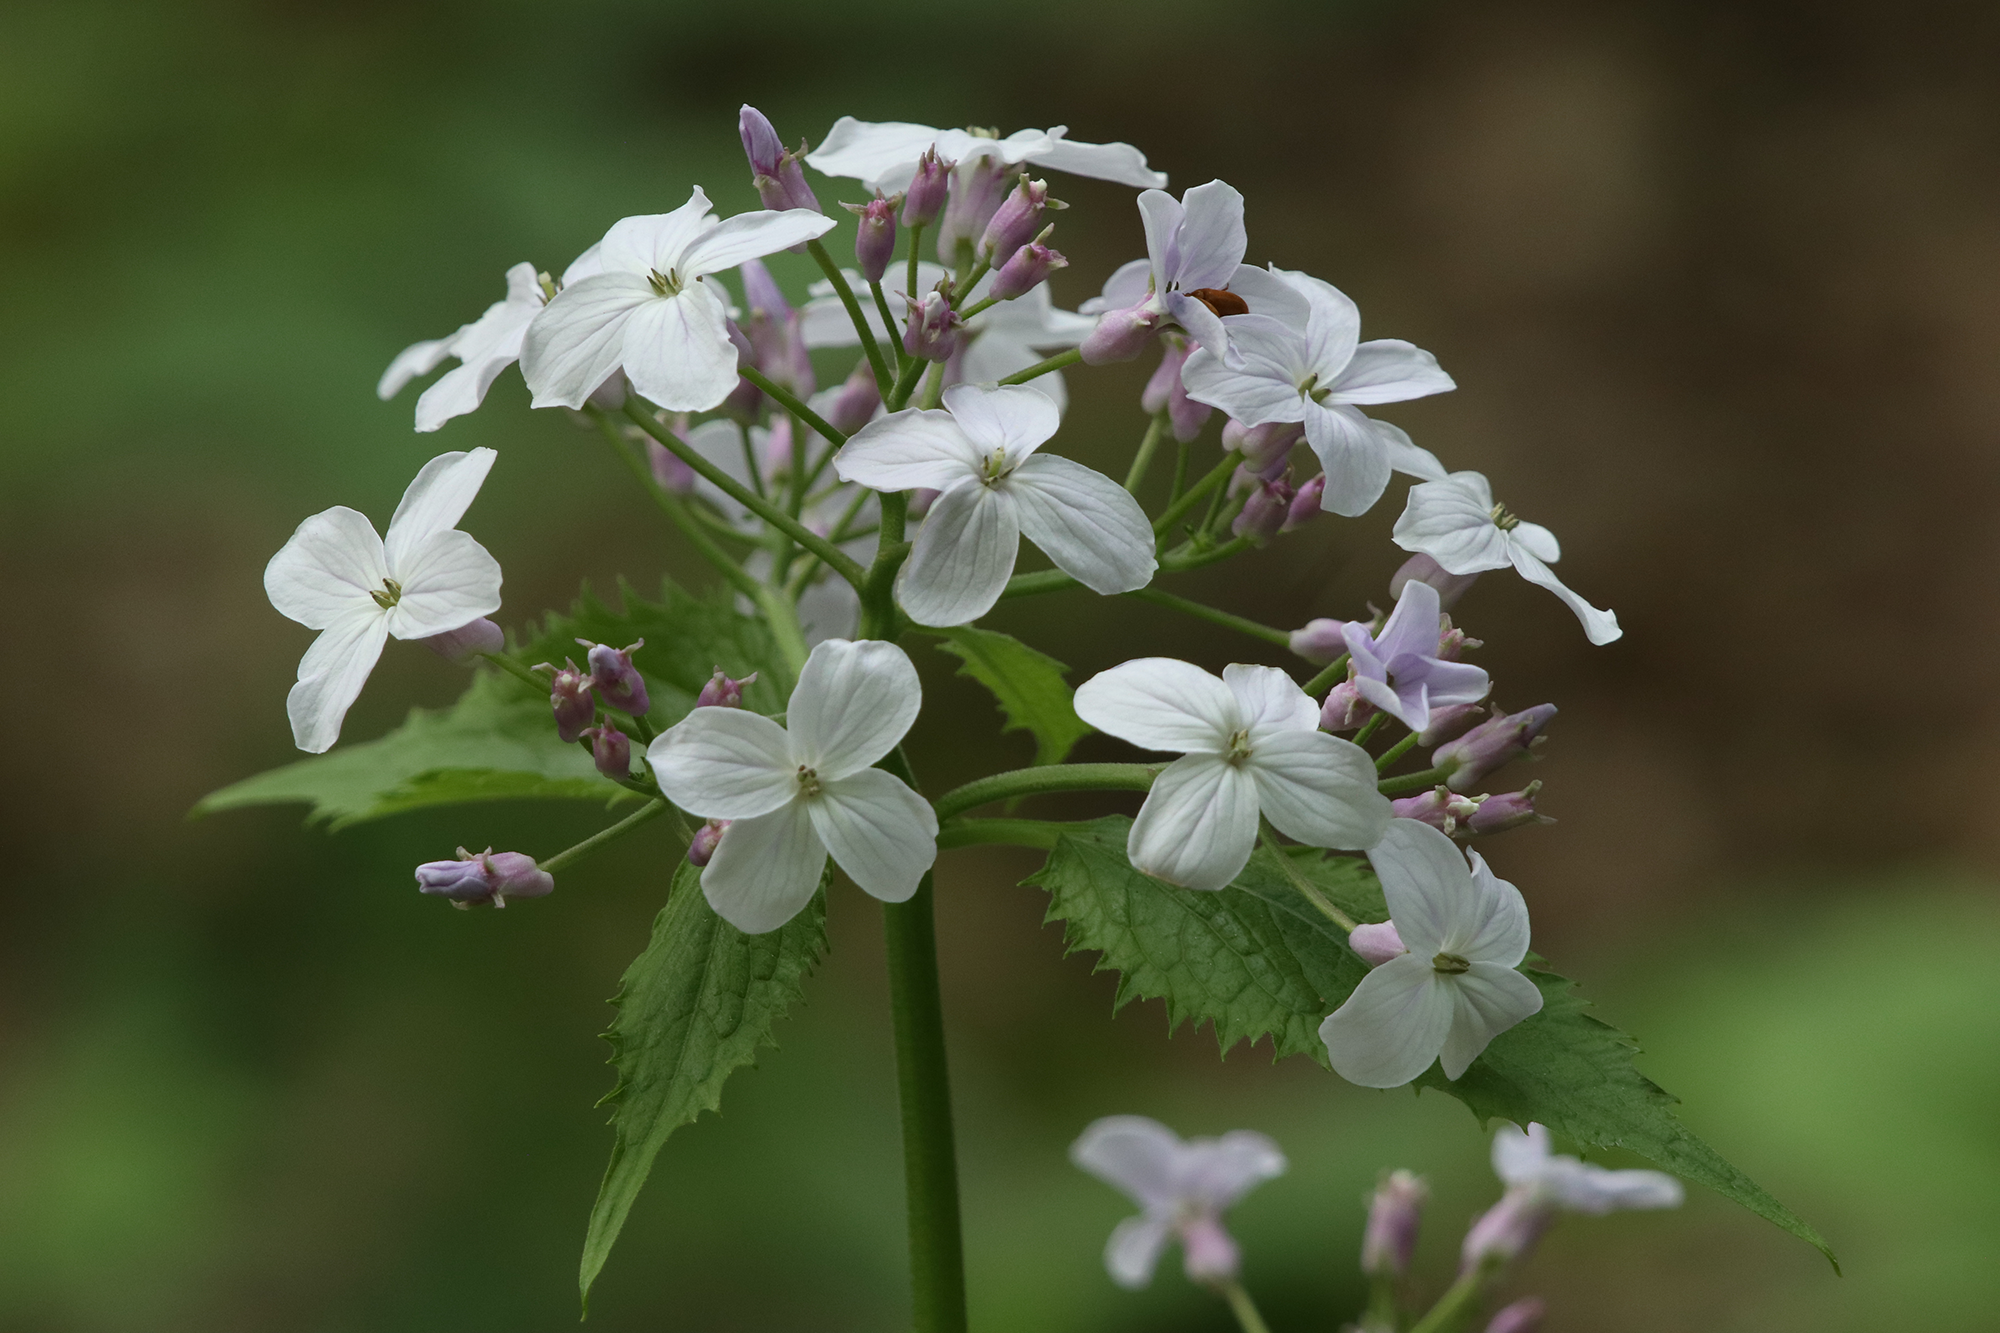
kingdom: Plantae
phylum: Tracheophyta
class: Magnoliopsida
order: Brassicales
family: Brassicaceae
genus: Lunaria
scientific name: Lunaria rediviva
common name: Perennial honesty
